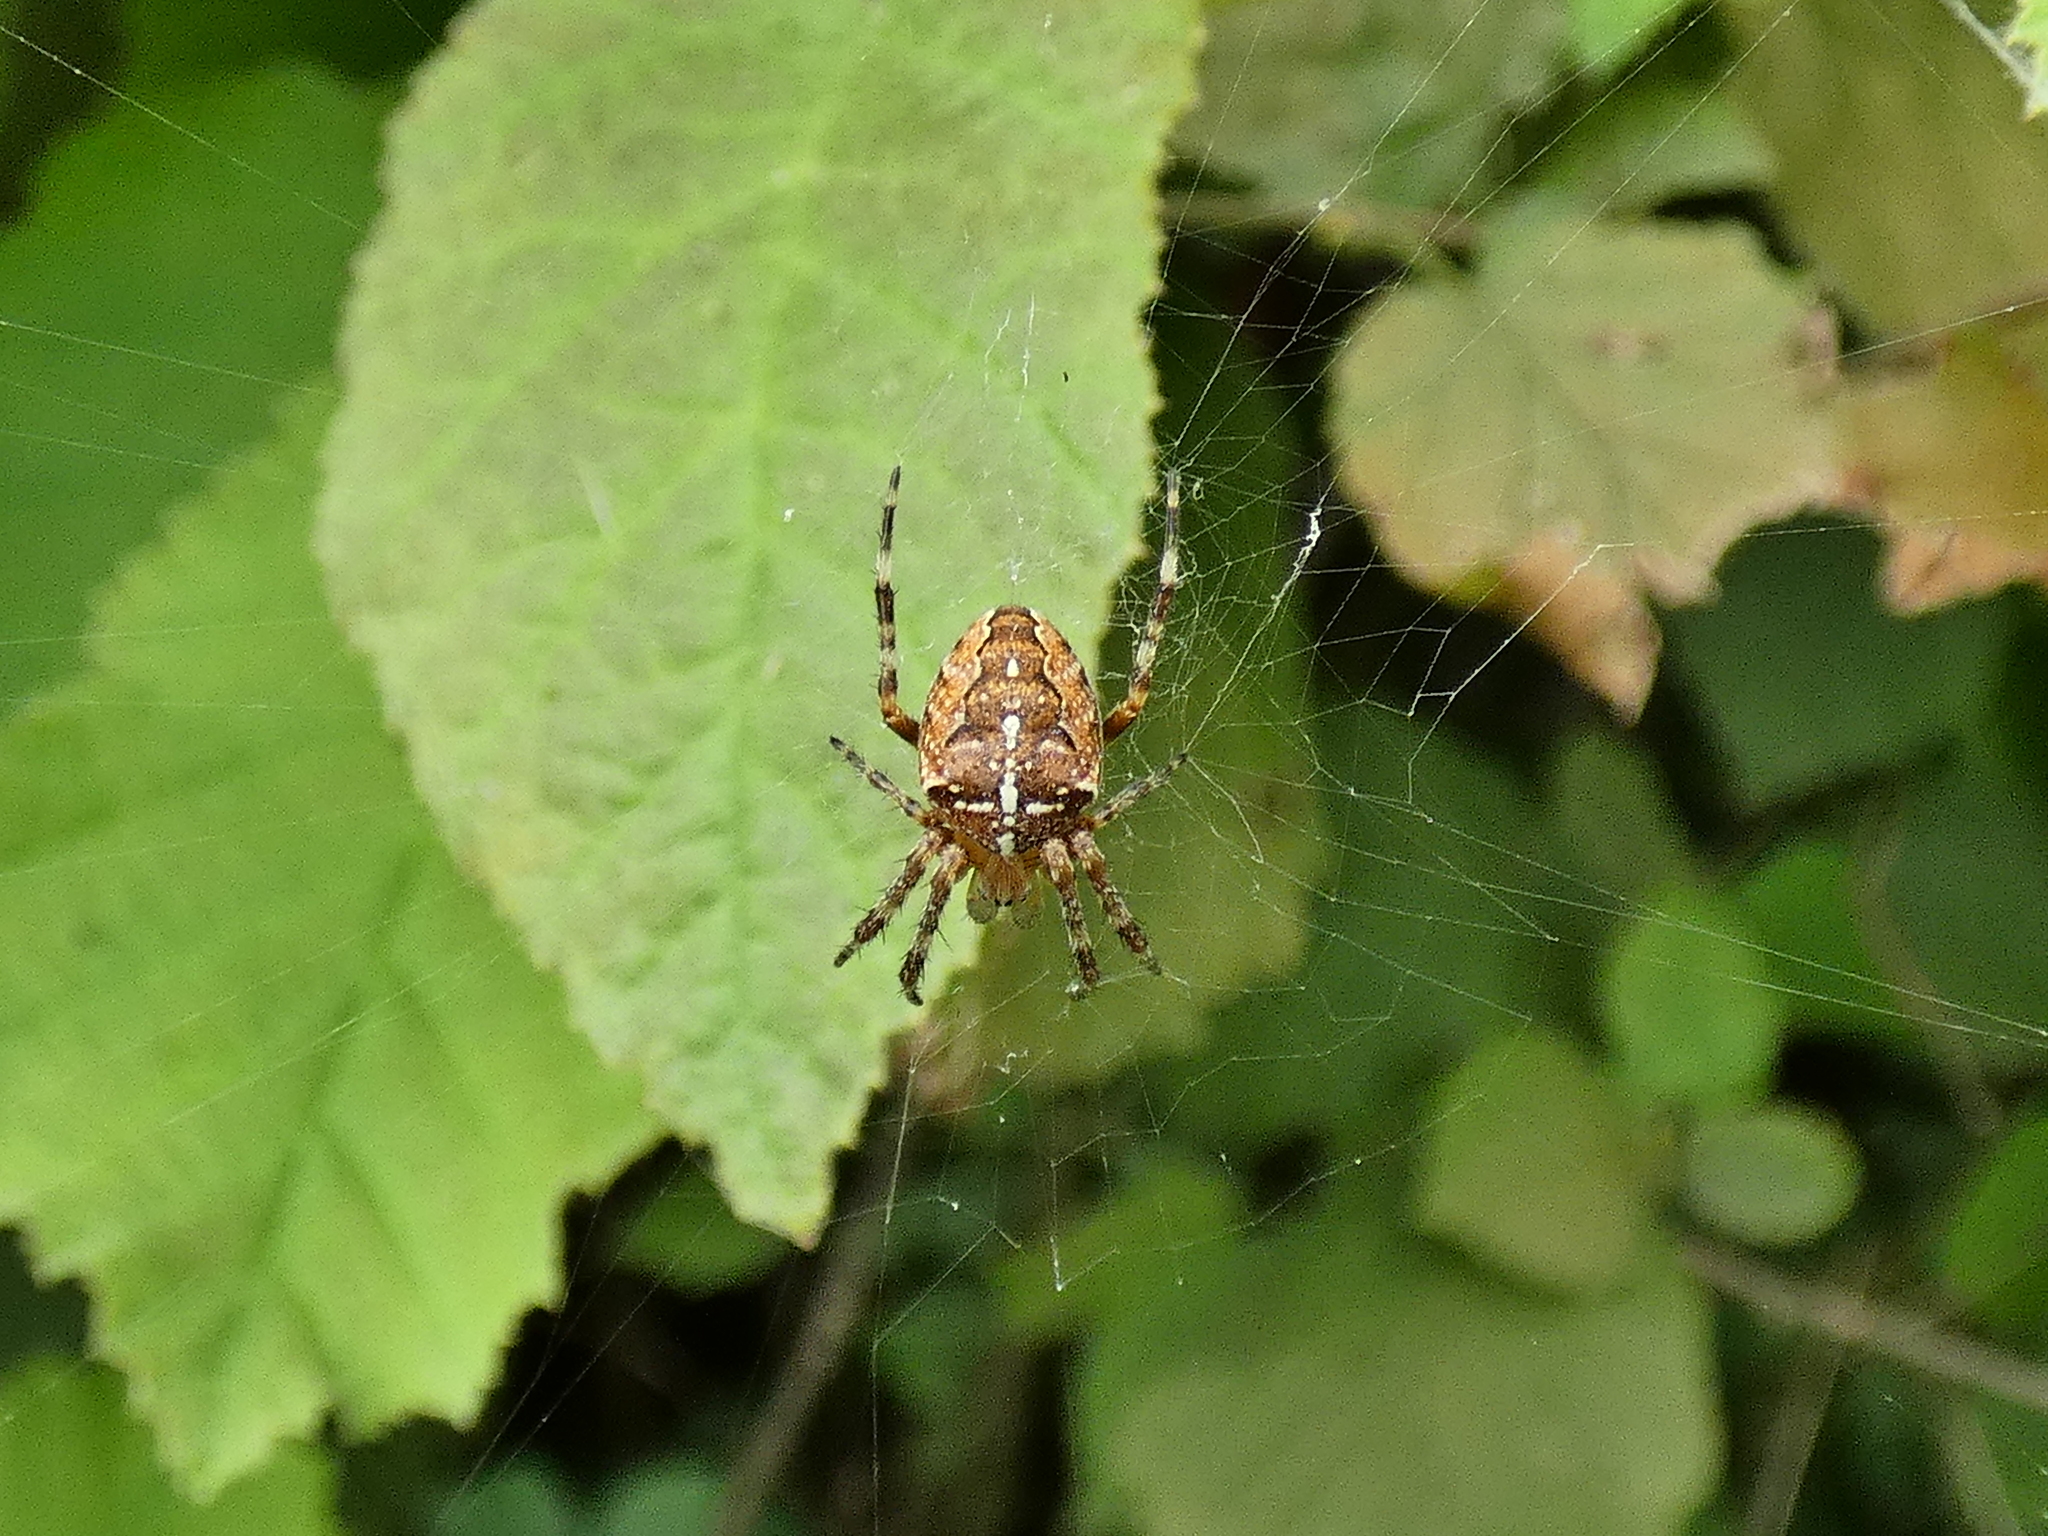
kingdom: Animalia
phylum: Arthropoda
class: Arachnida
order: Araneae
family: Araneidae
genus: Araneus
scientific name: Araneus diadematus
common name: Cross orbweaver
